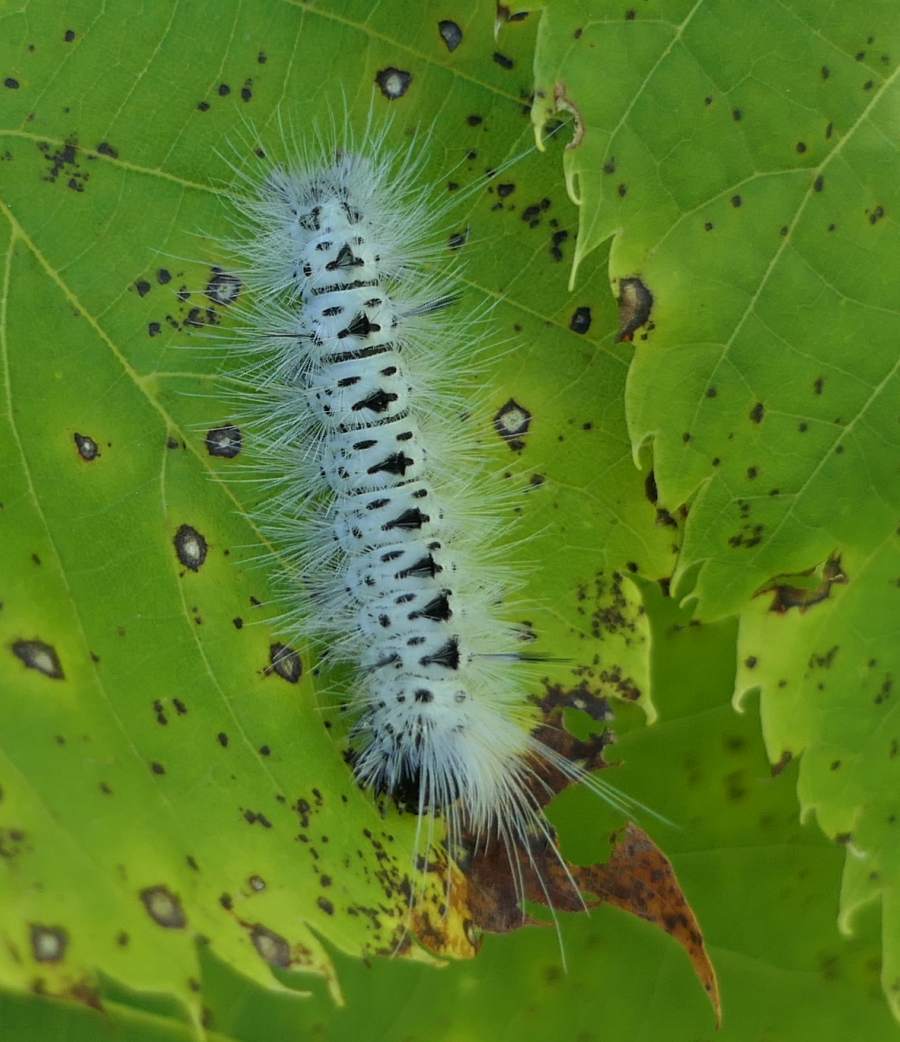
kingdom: Animalia
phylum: Arthropoda
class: Insecta
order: Lepidoptera
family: Erebidae
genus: Lophocampa
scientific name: Lophocampa caryae
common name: Hickory tussock moth
